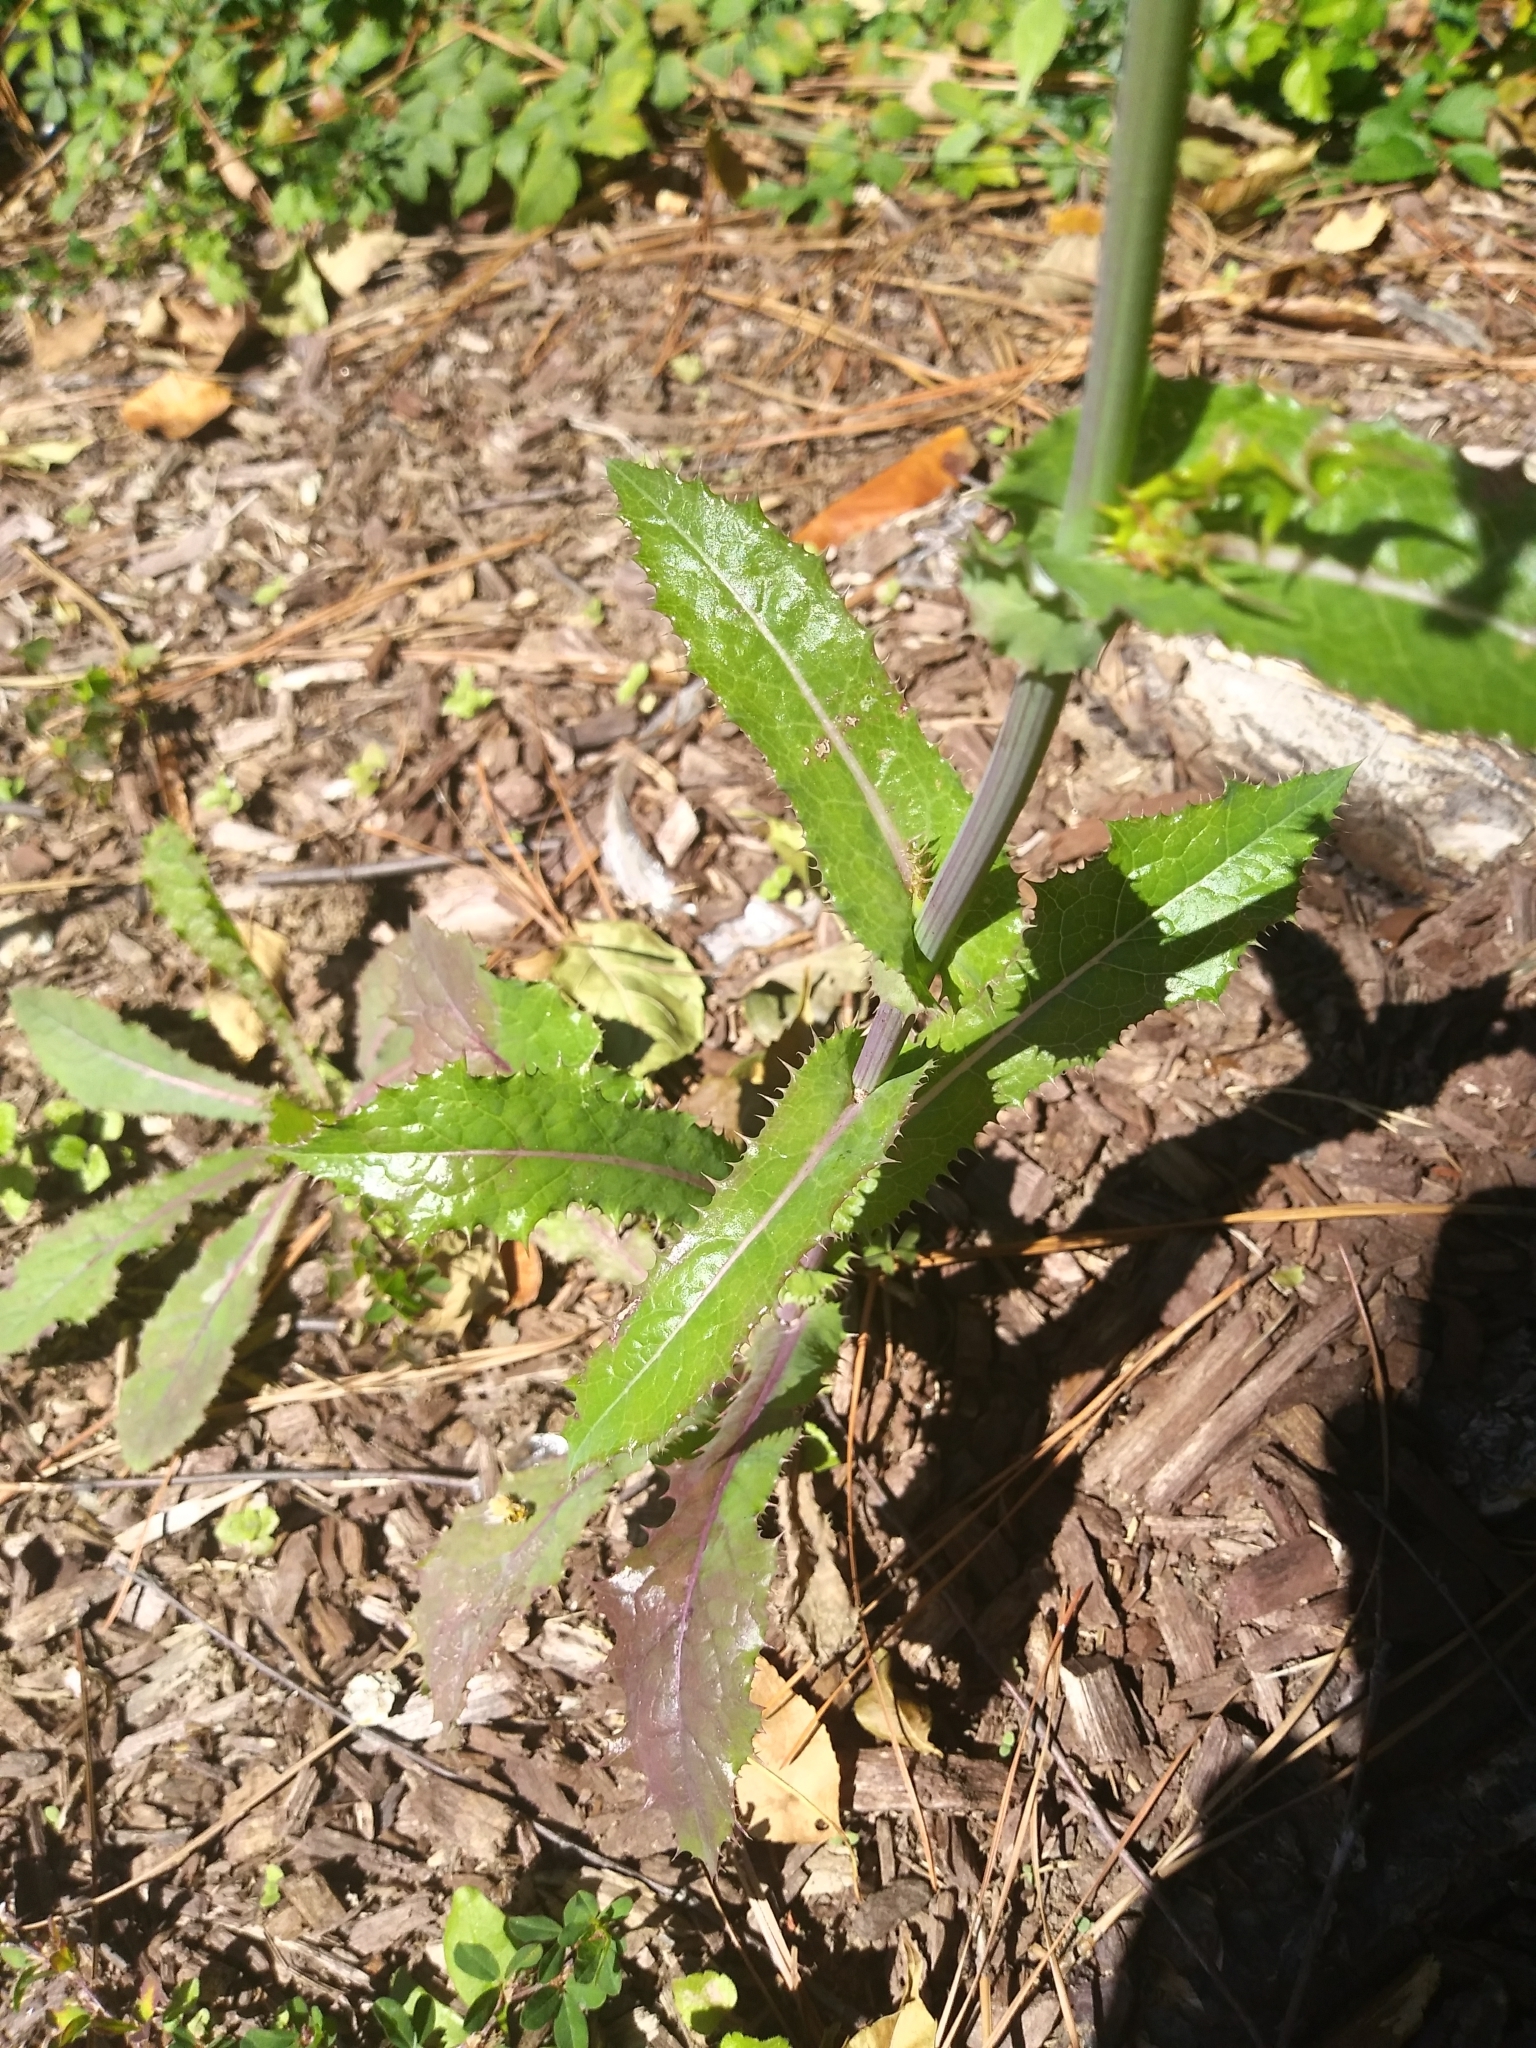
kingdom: Plantae
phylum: Tracheophyta
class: Magnoliopsida
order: Asterales
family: Asteraceae
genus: Sonchus
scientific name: Sonchus asper
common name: Prickly sow-thistle
